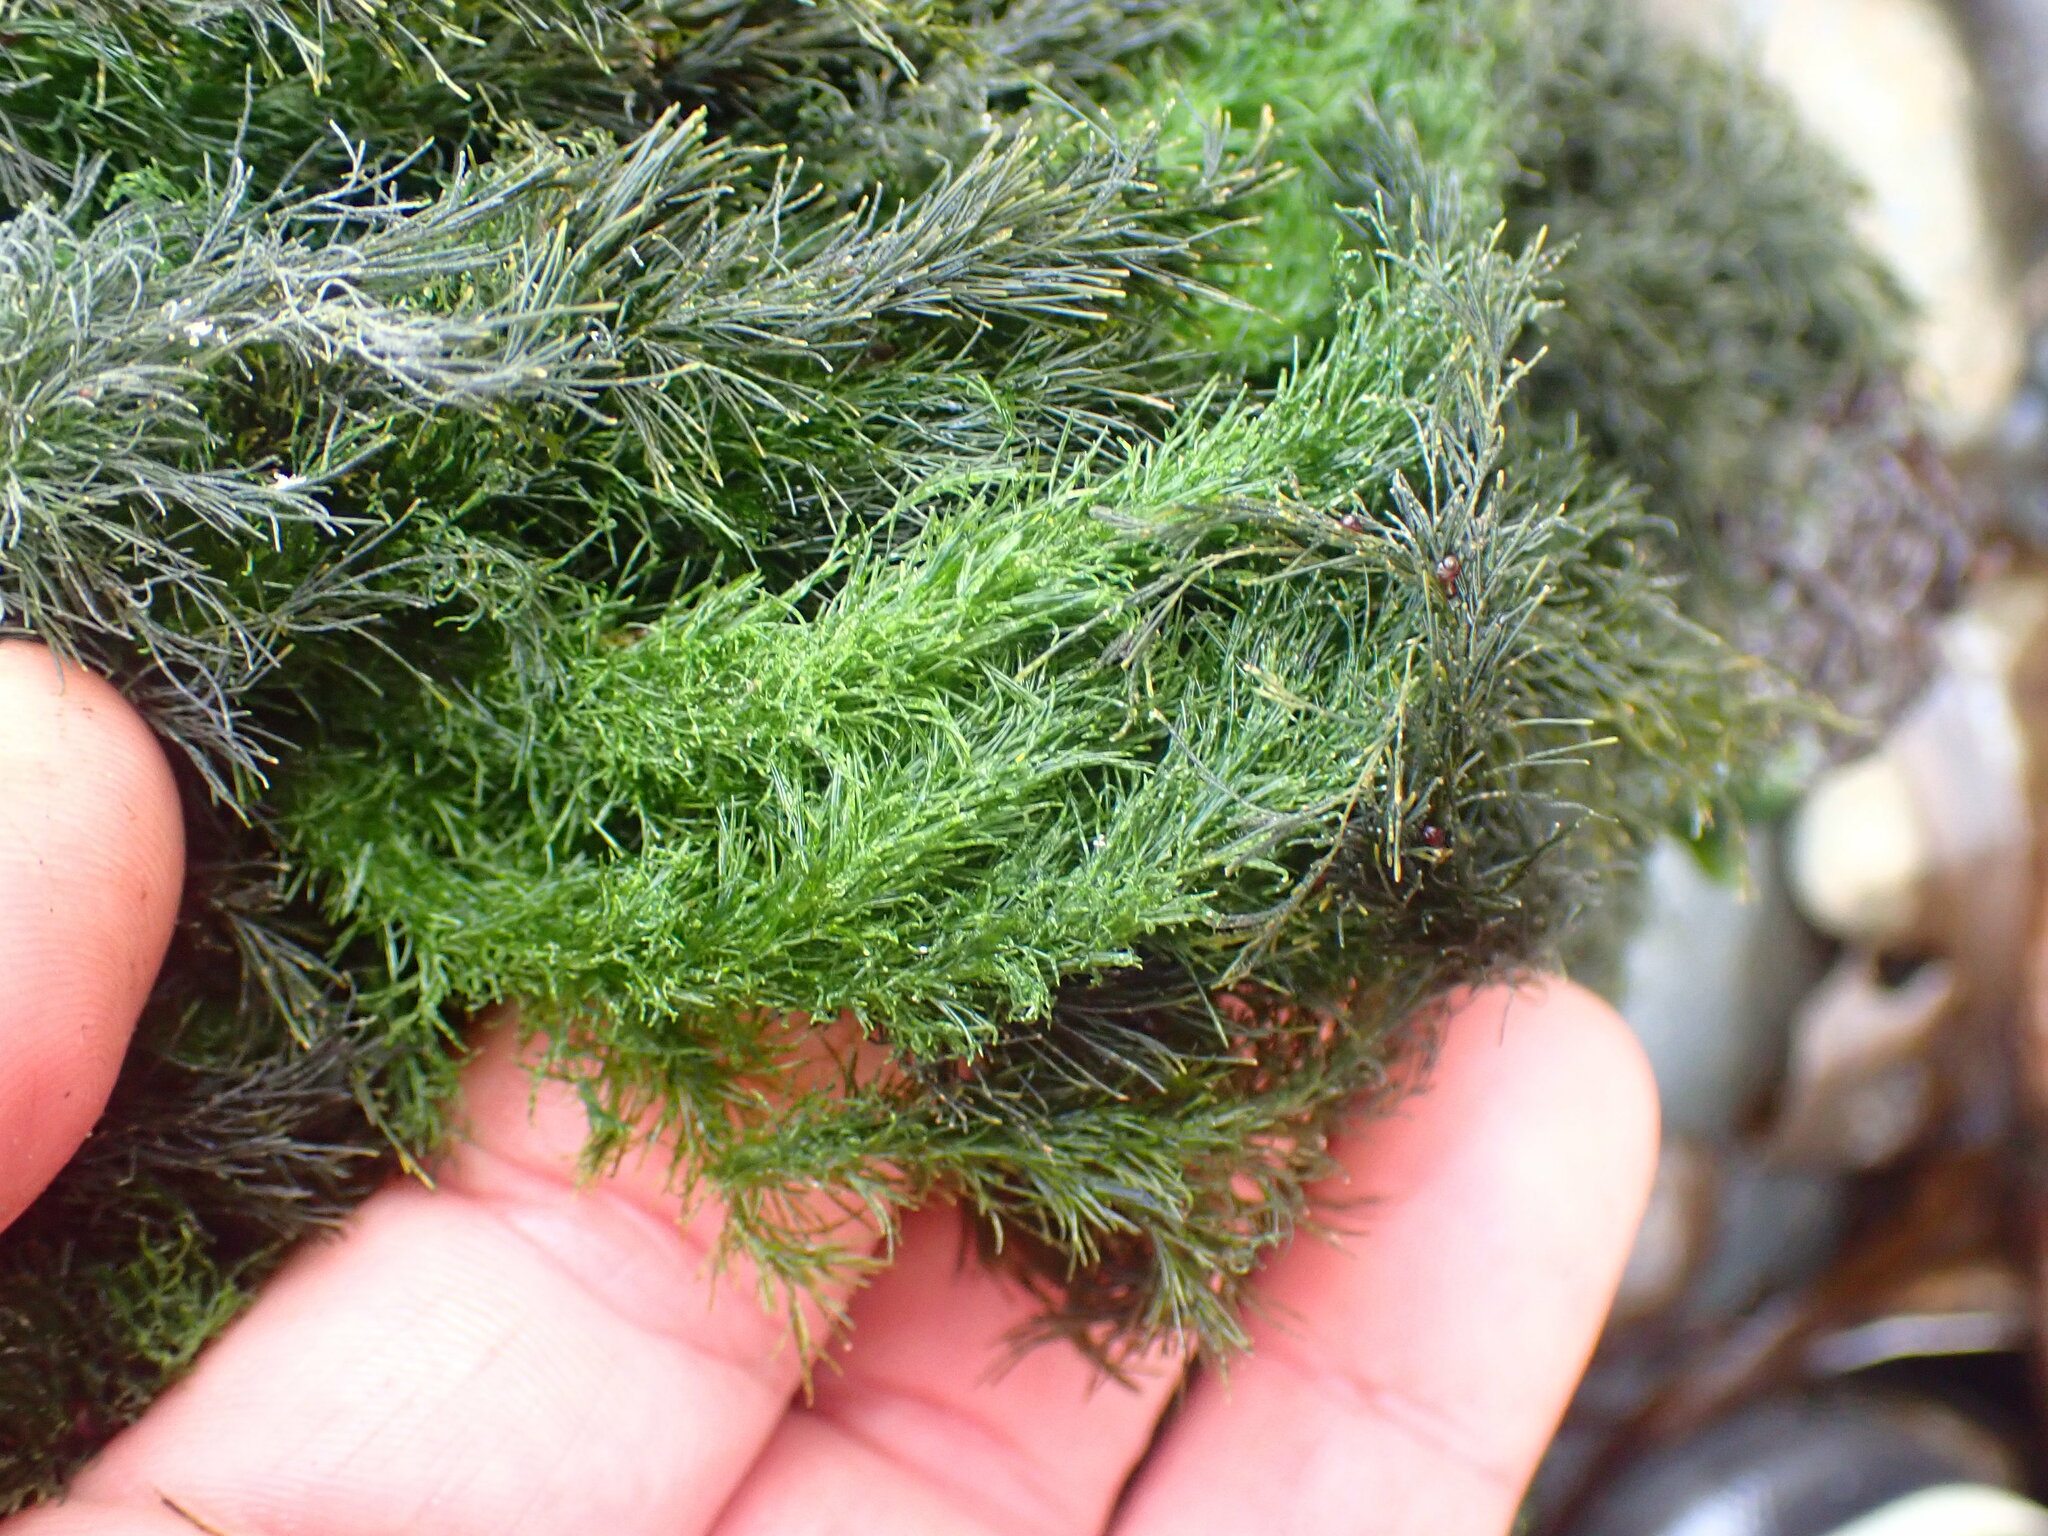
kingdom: Plantae
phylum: Chlorophyta
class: Ulvophyceae
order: Ulotrichales
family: Ulotrichaceae
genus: Acrosiphonia
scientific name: Acrosiphonia
